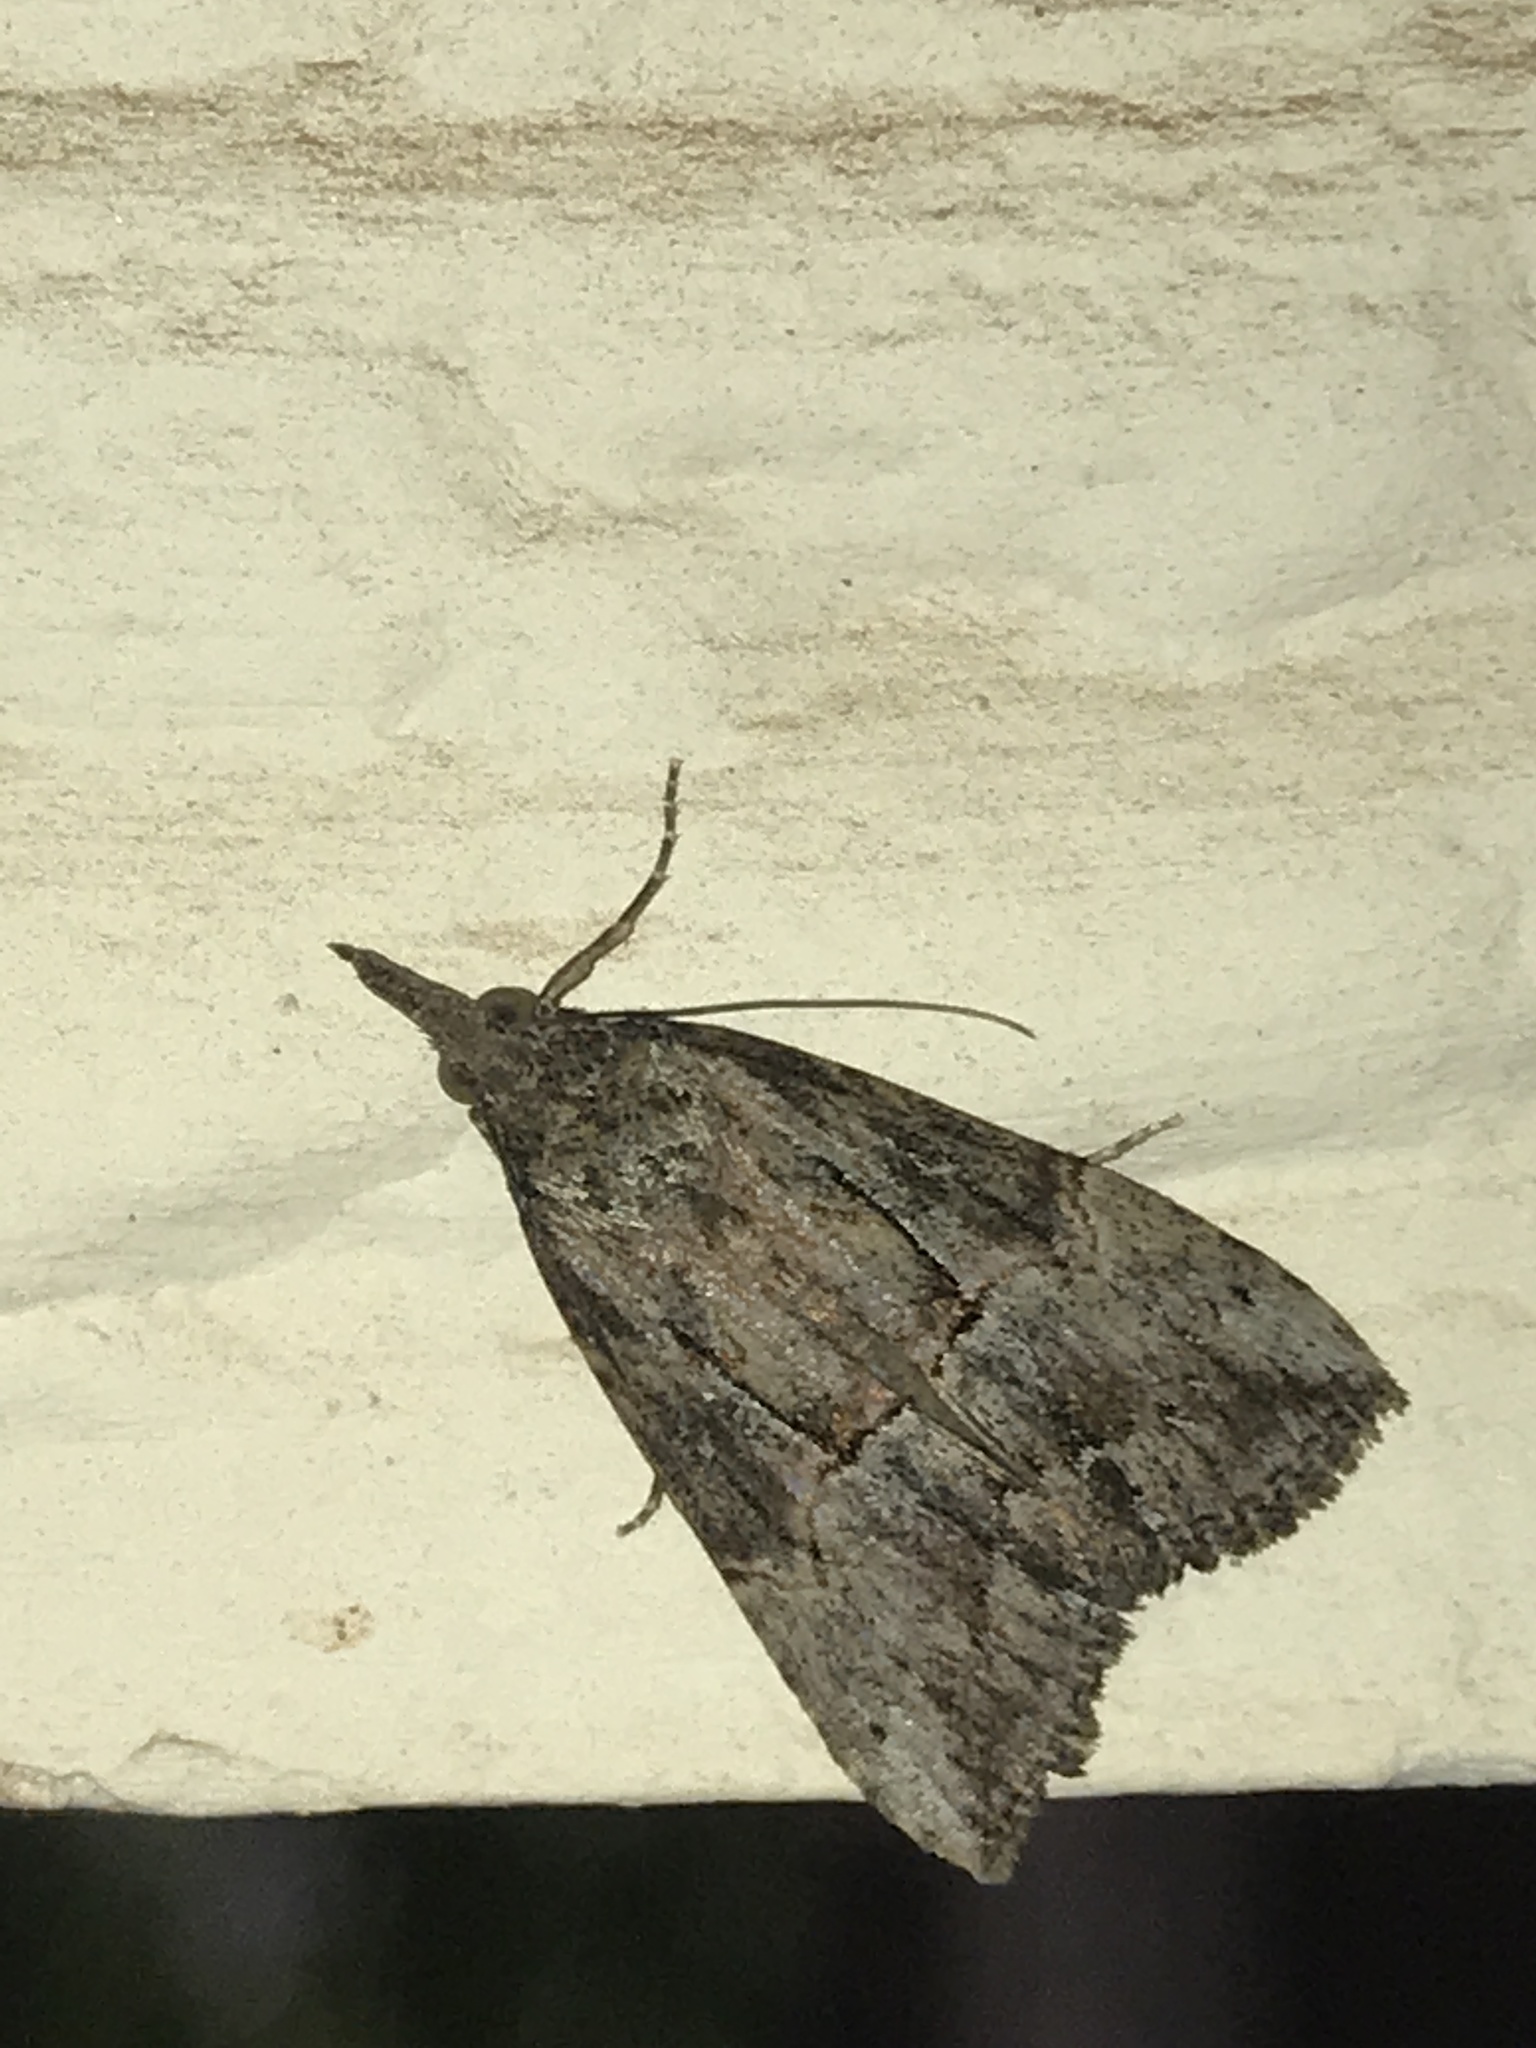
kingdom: Animalia
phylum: Arthropoda
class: Insecta
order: Lepidoptera
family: Erebidae
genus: Hypena
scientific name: Hypena scabra
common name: Green cloverworm
